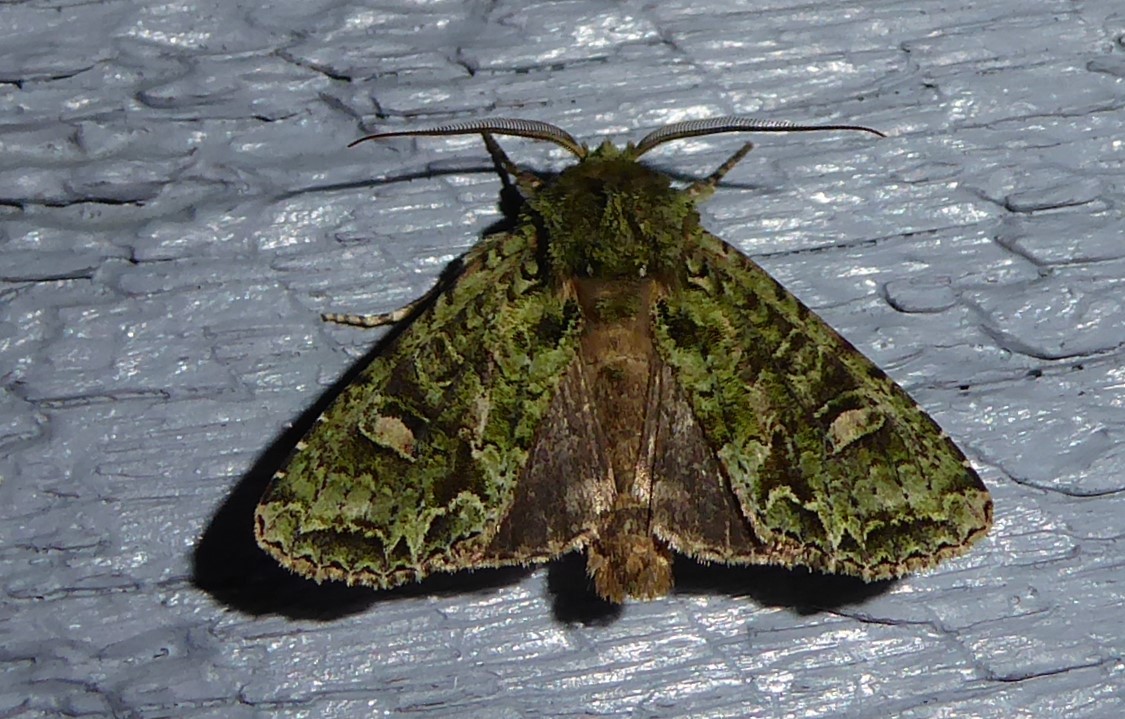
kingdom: Animalia
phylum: Arthropoda
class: Insecta
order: Lepidoptera
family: Noctuidae
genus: Ichneutica
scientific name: Ichneutica
